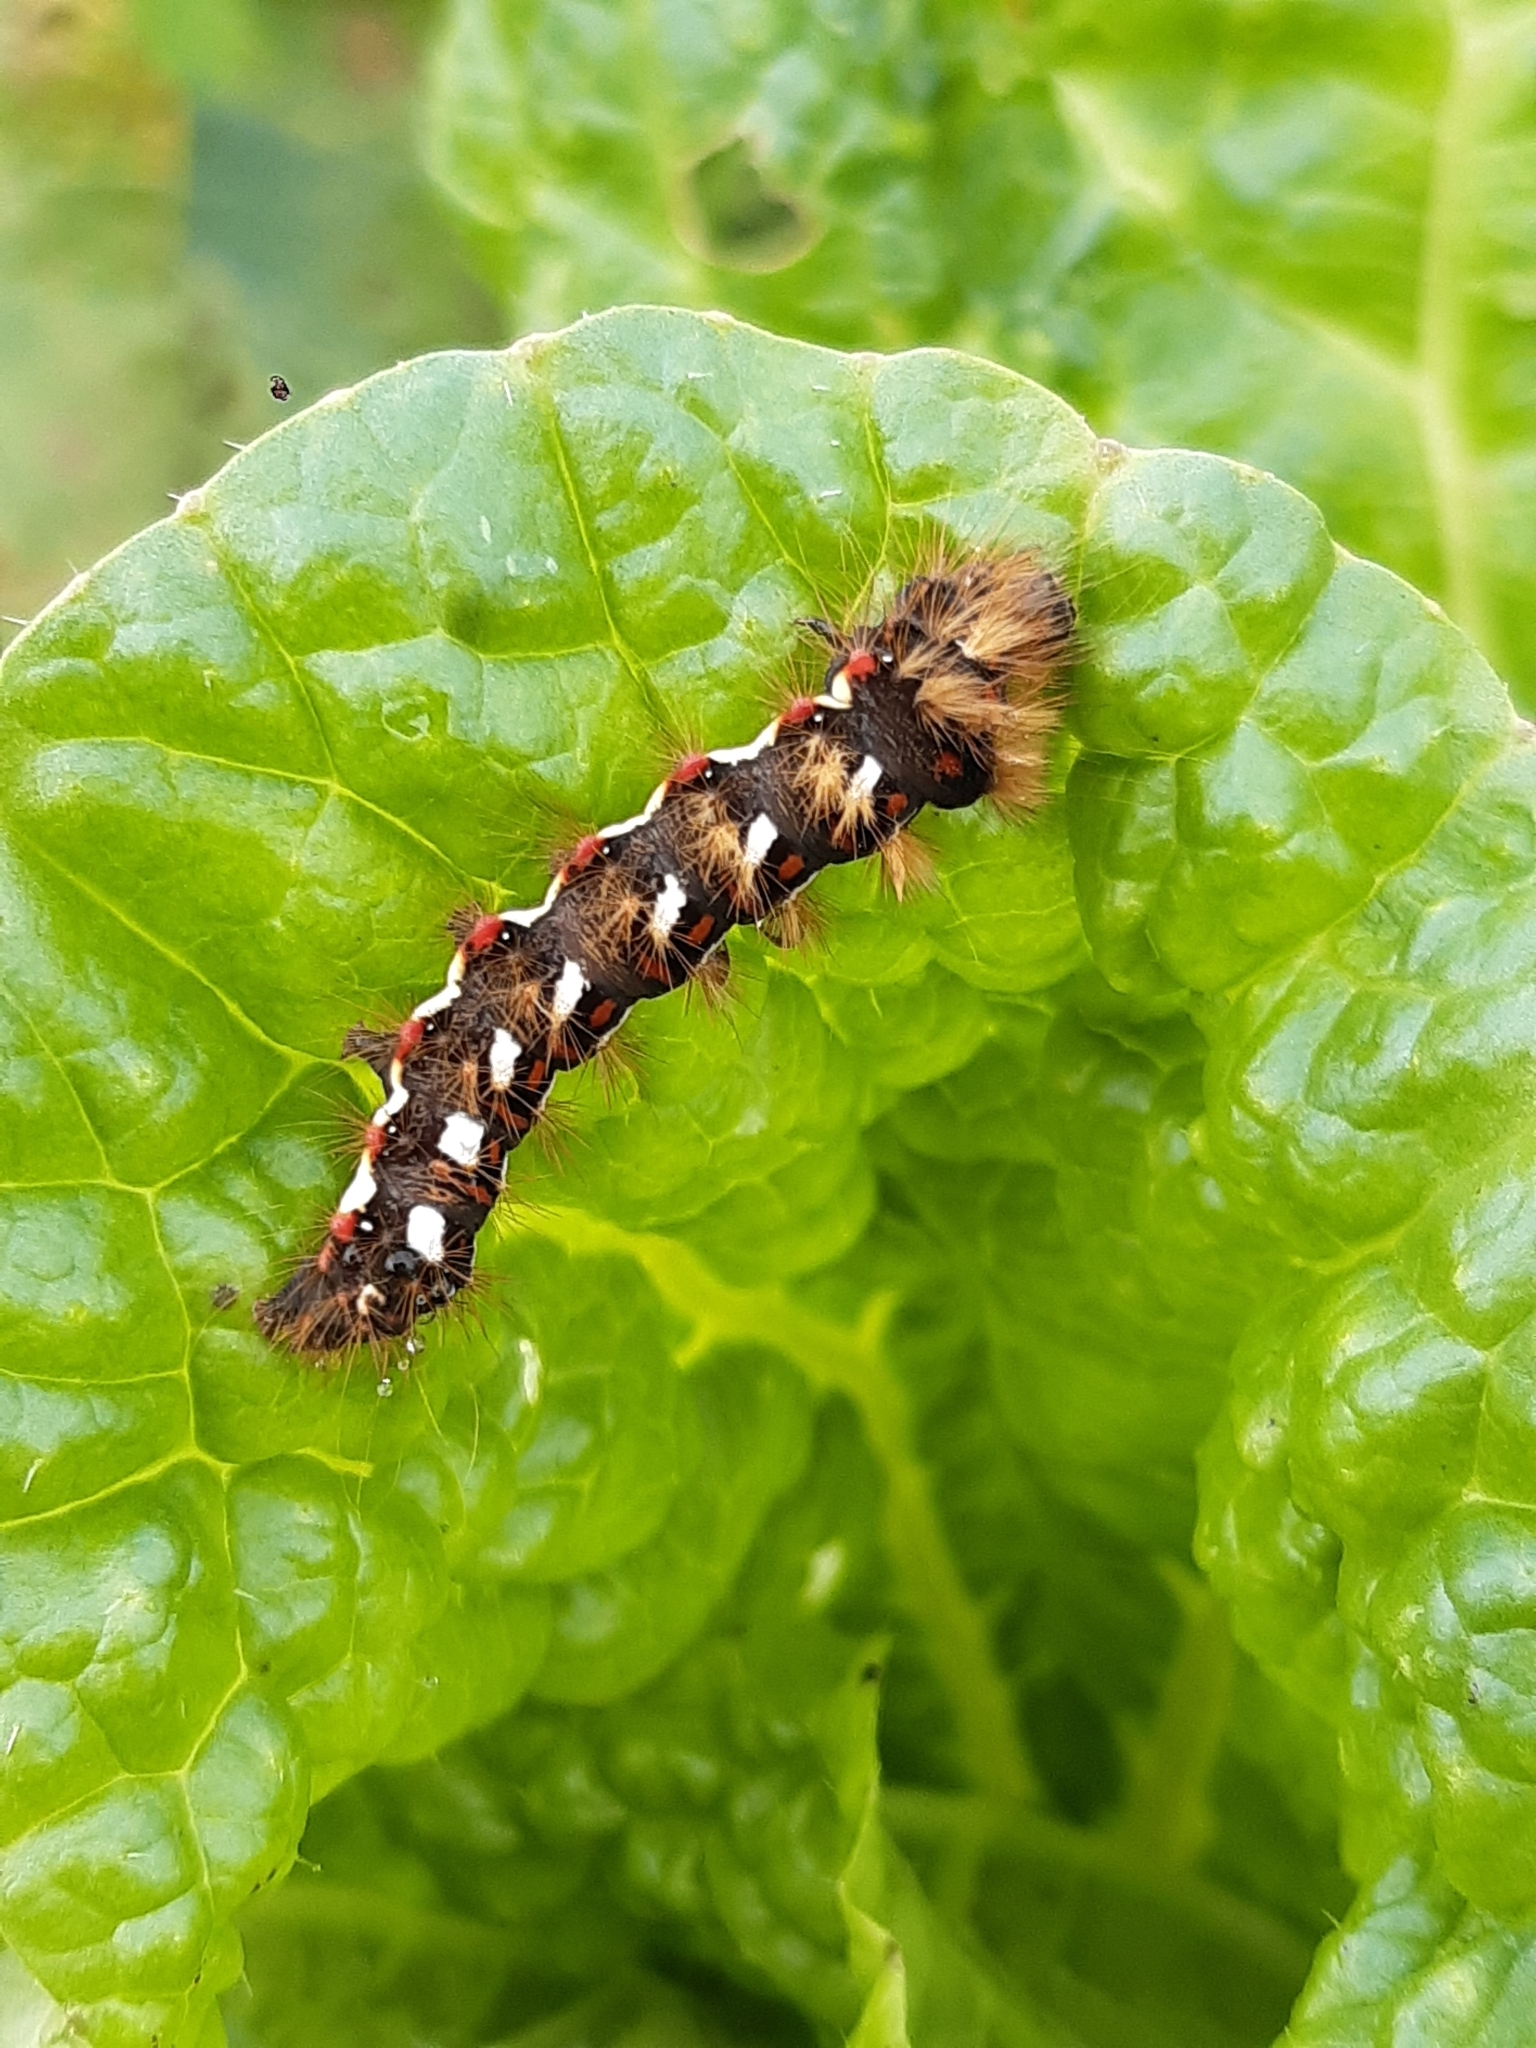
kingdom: Animalia
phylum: Arthropoda
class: Insecta
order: Lepidoptera
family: Noctuidae
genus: Acronicta
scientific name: Acronicta rumicis
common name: Knot grass
